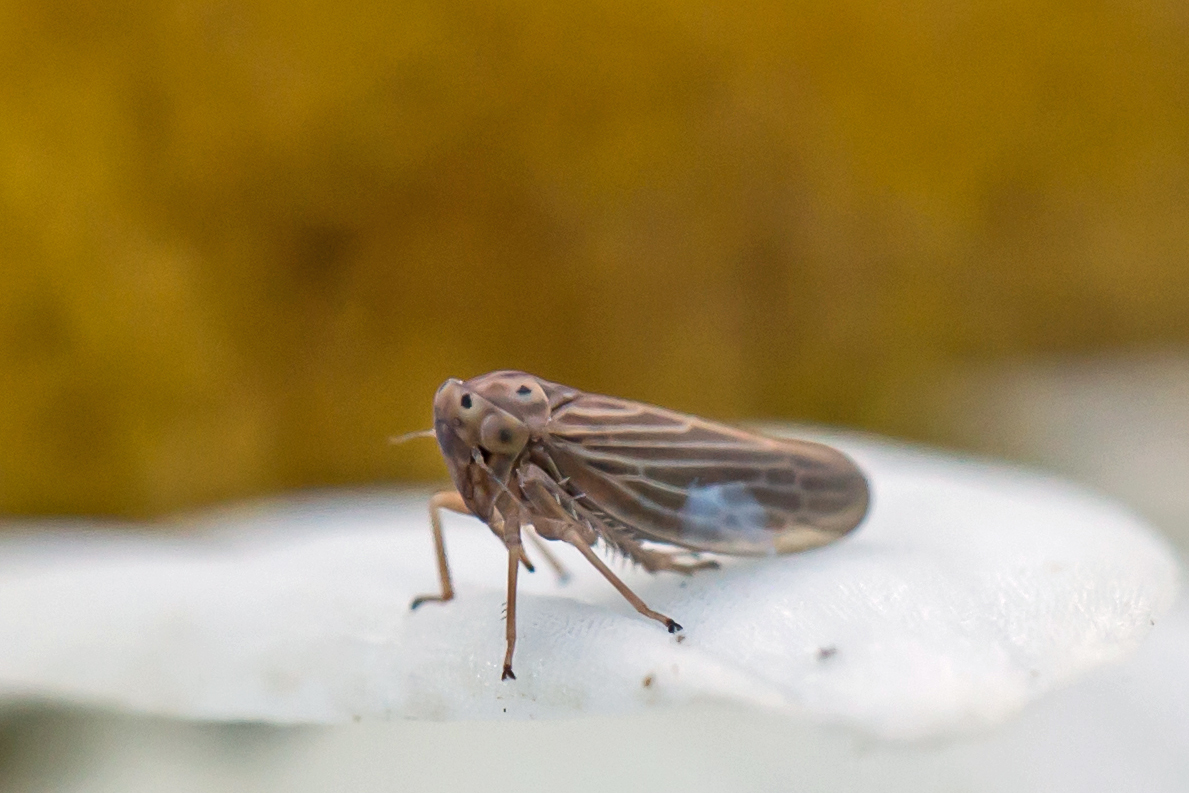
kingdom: Animalia
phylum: Arthropoda
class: Insecta
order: Hemiptera
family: Cicadellidae
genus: Agallia
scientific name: Agallia constricta
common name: The constricted leafhopper
